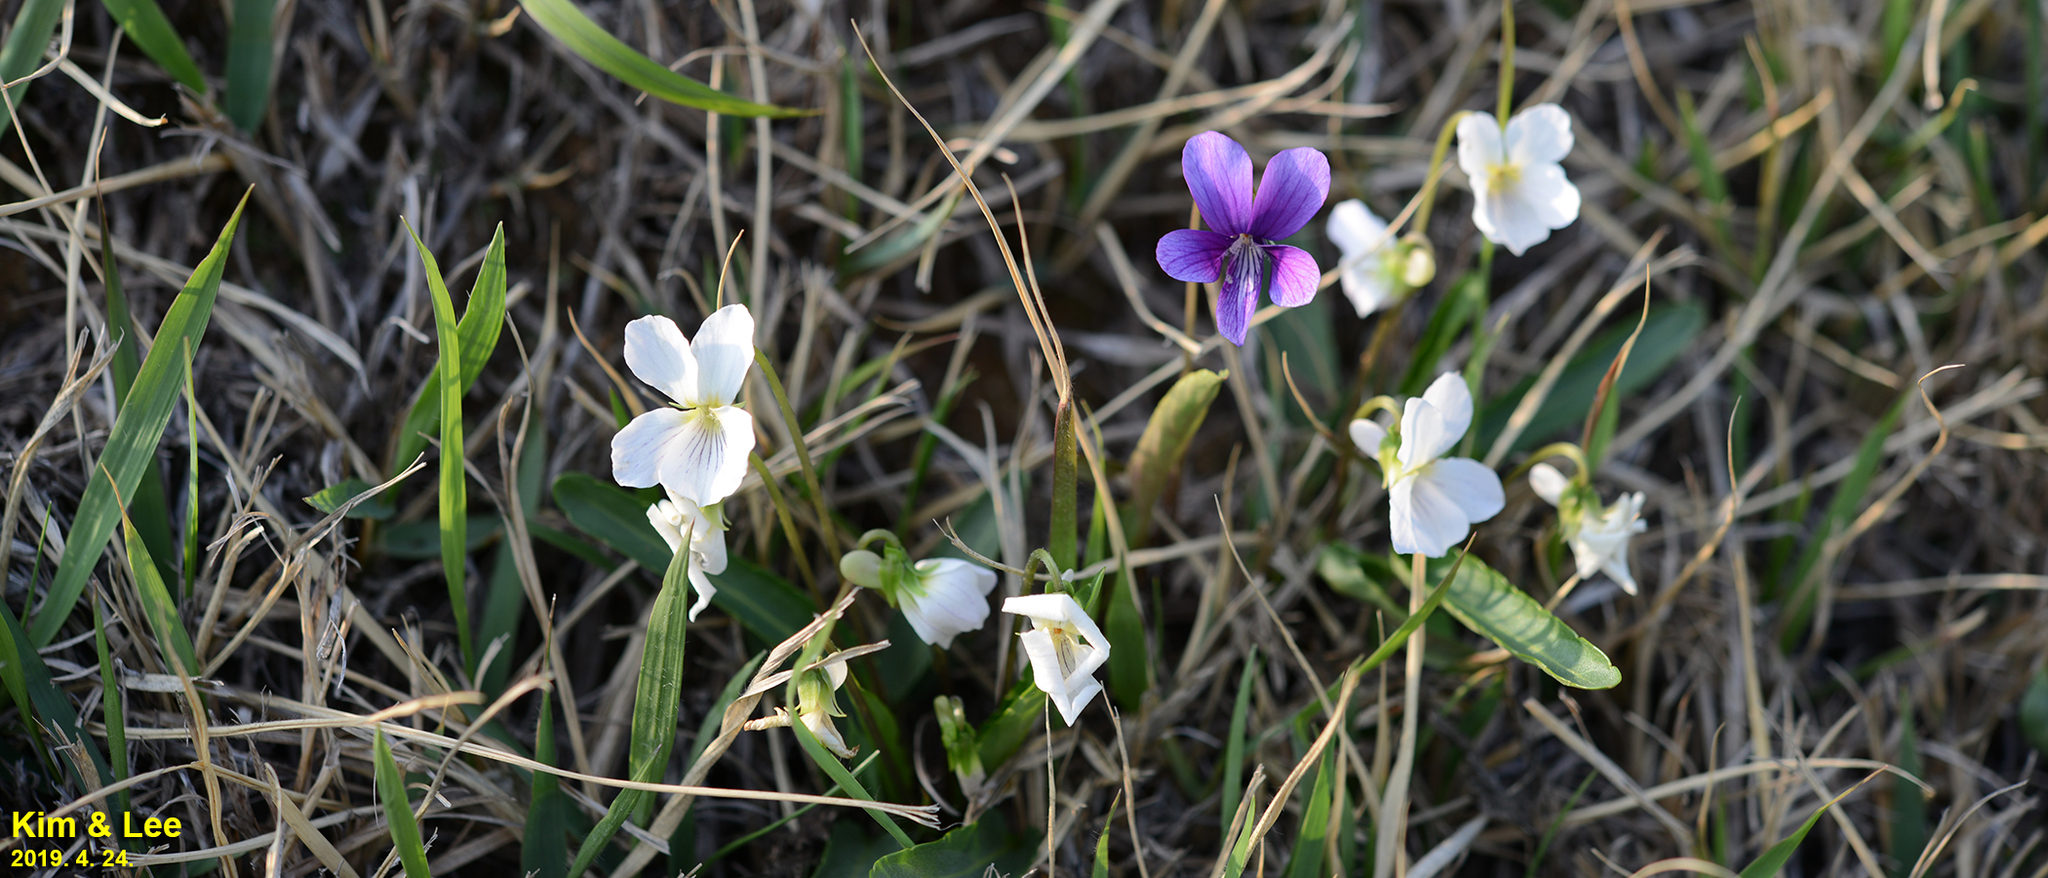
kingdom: Plantae
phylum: Tracheophyta
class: Magnoliopsida
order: Malpighiales
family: Violaceae
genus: Viola
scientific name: Viola betonicifolia
